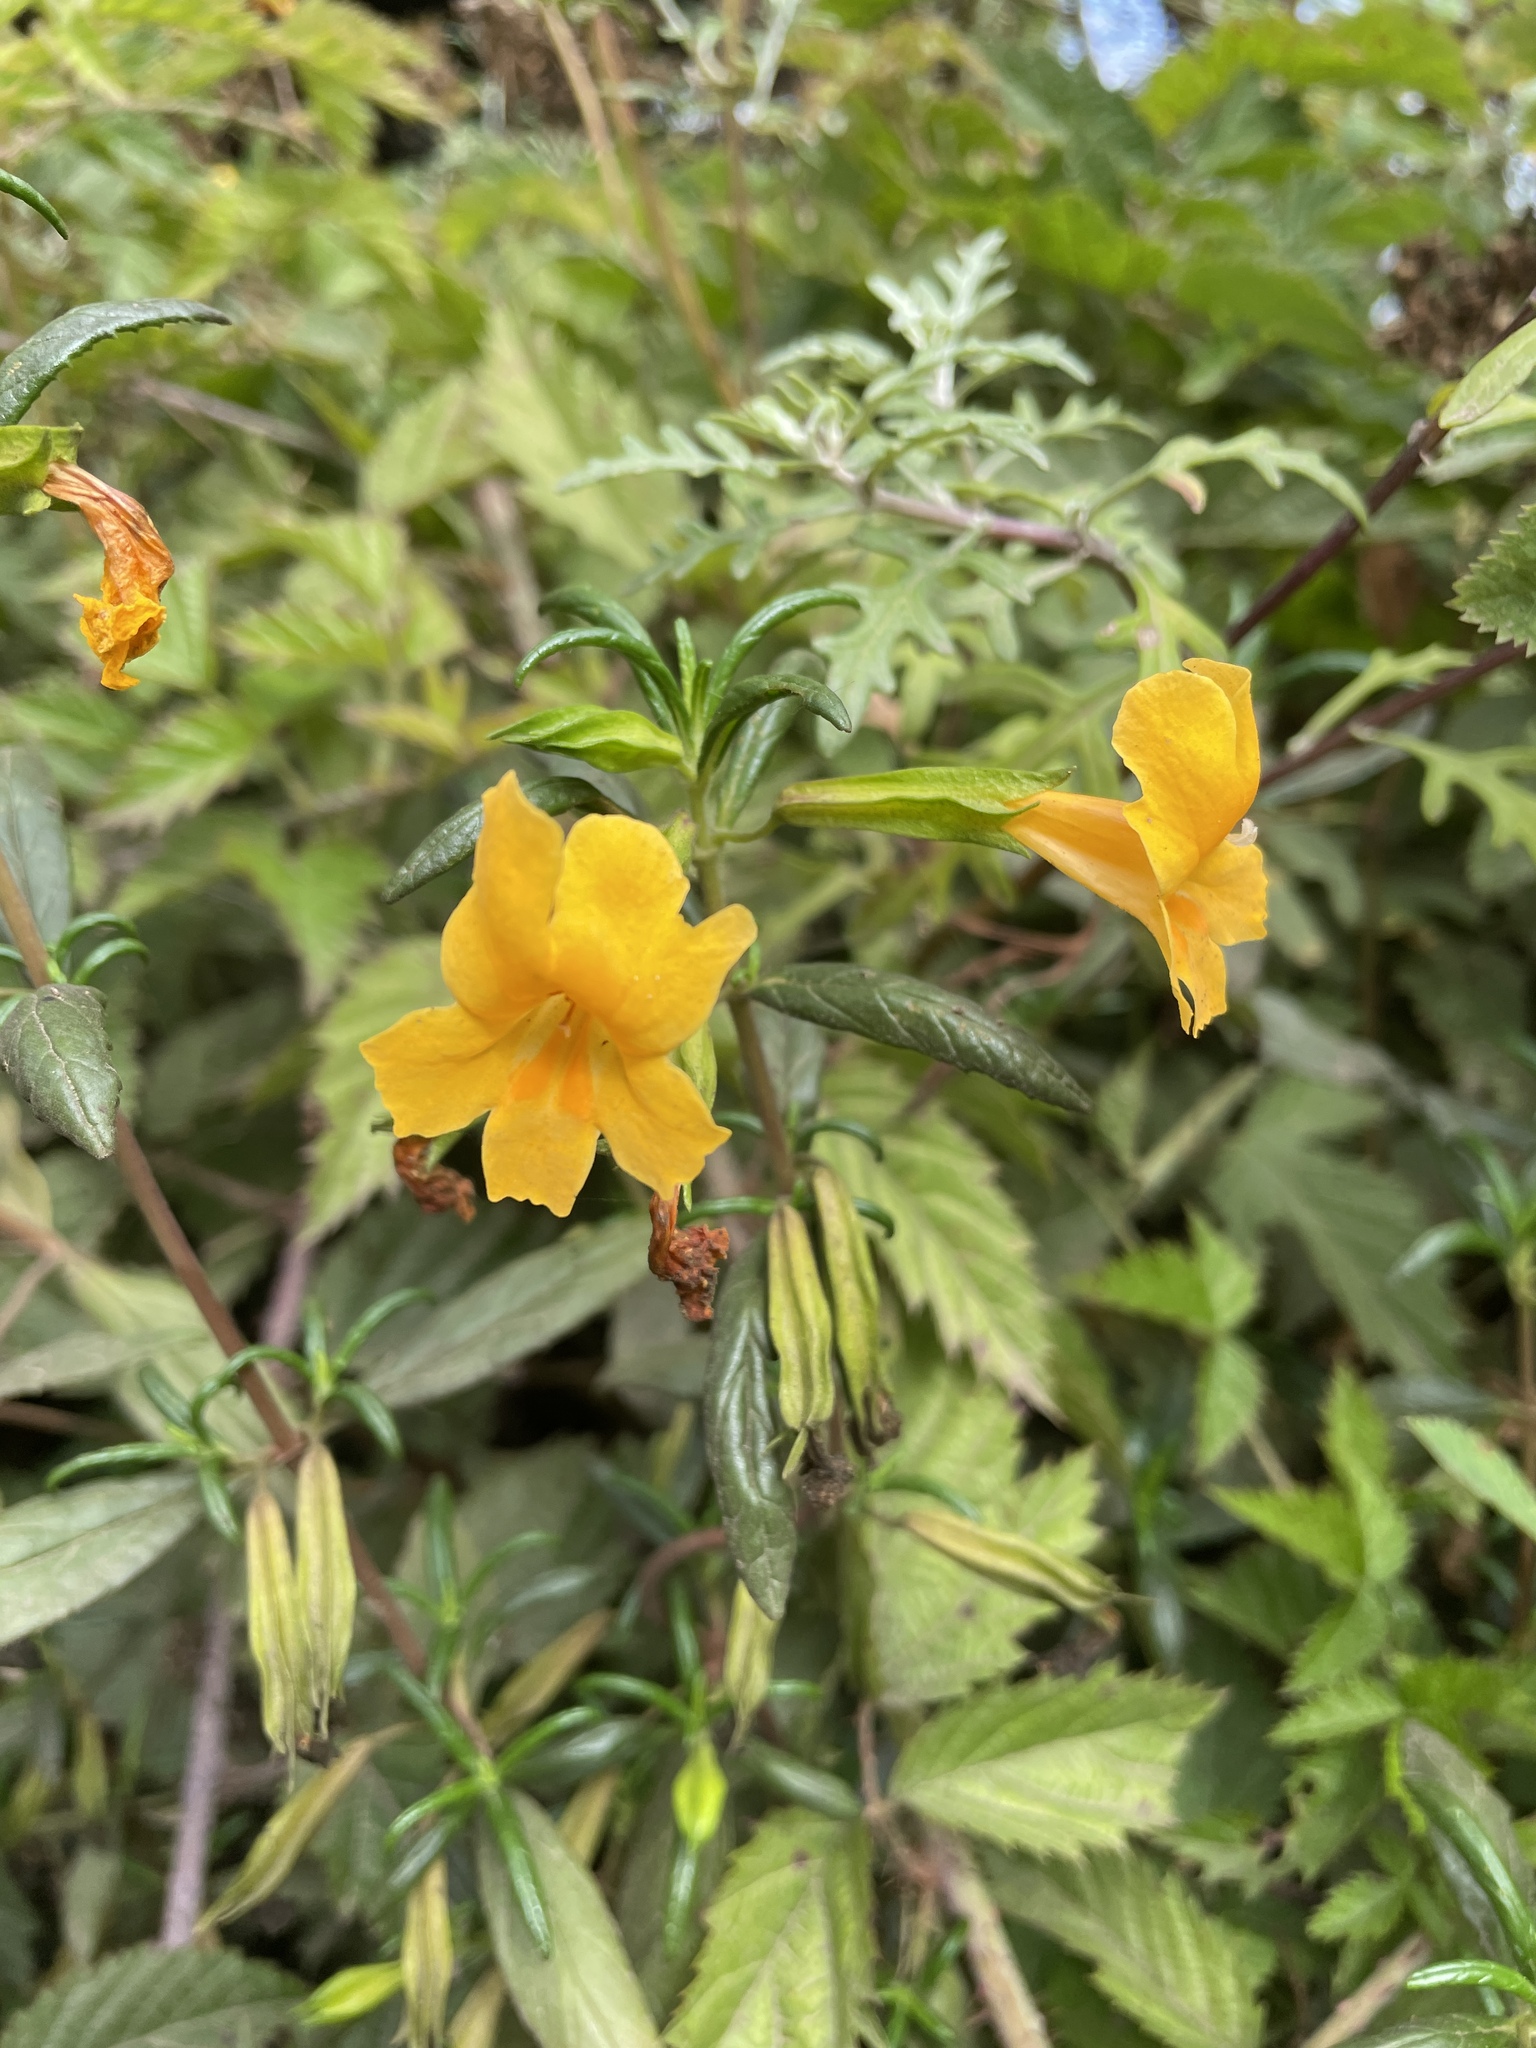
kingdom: Plantae
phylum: Tracheophyta
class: Magnoliopsida
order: Lamiales
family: Phrymaceae
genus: Diplacus
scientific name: Diplacus aurantiacus
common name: Bush monkey-flower
